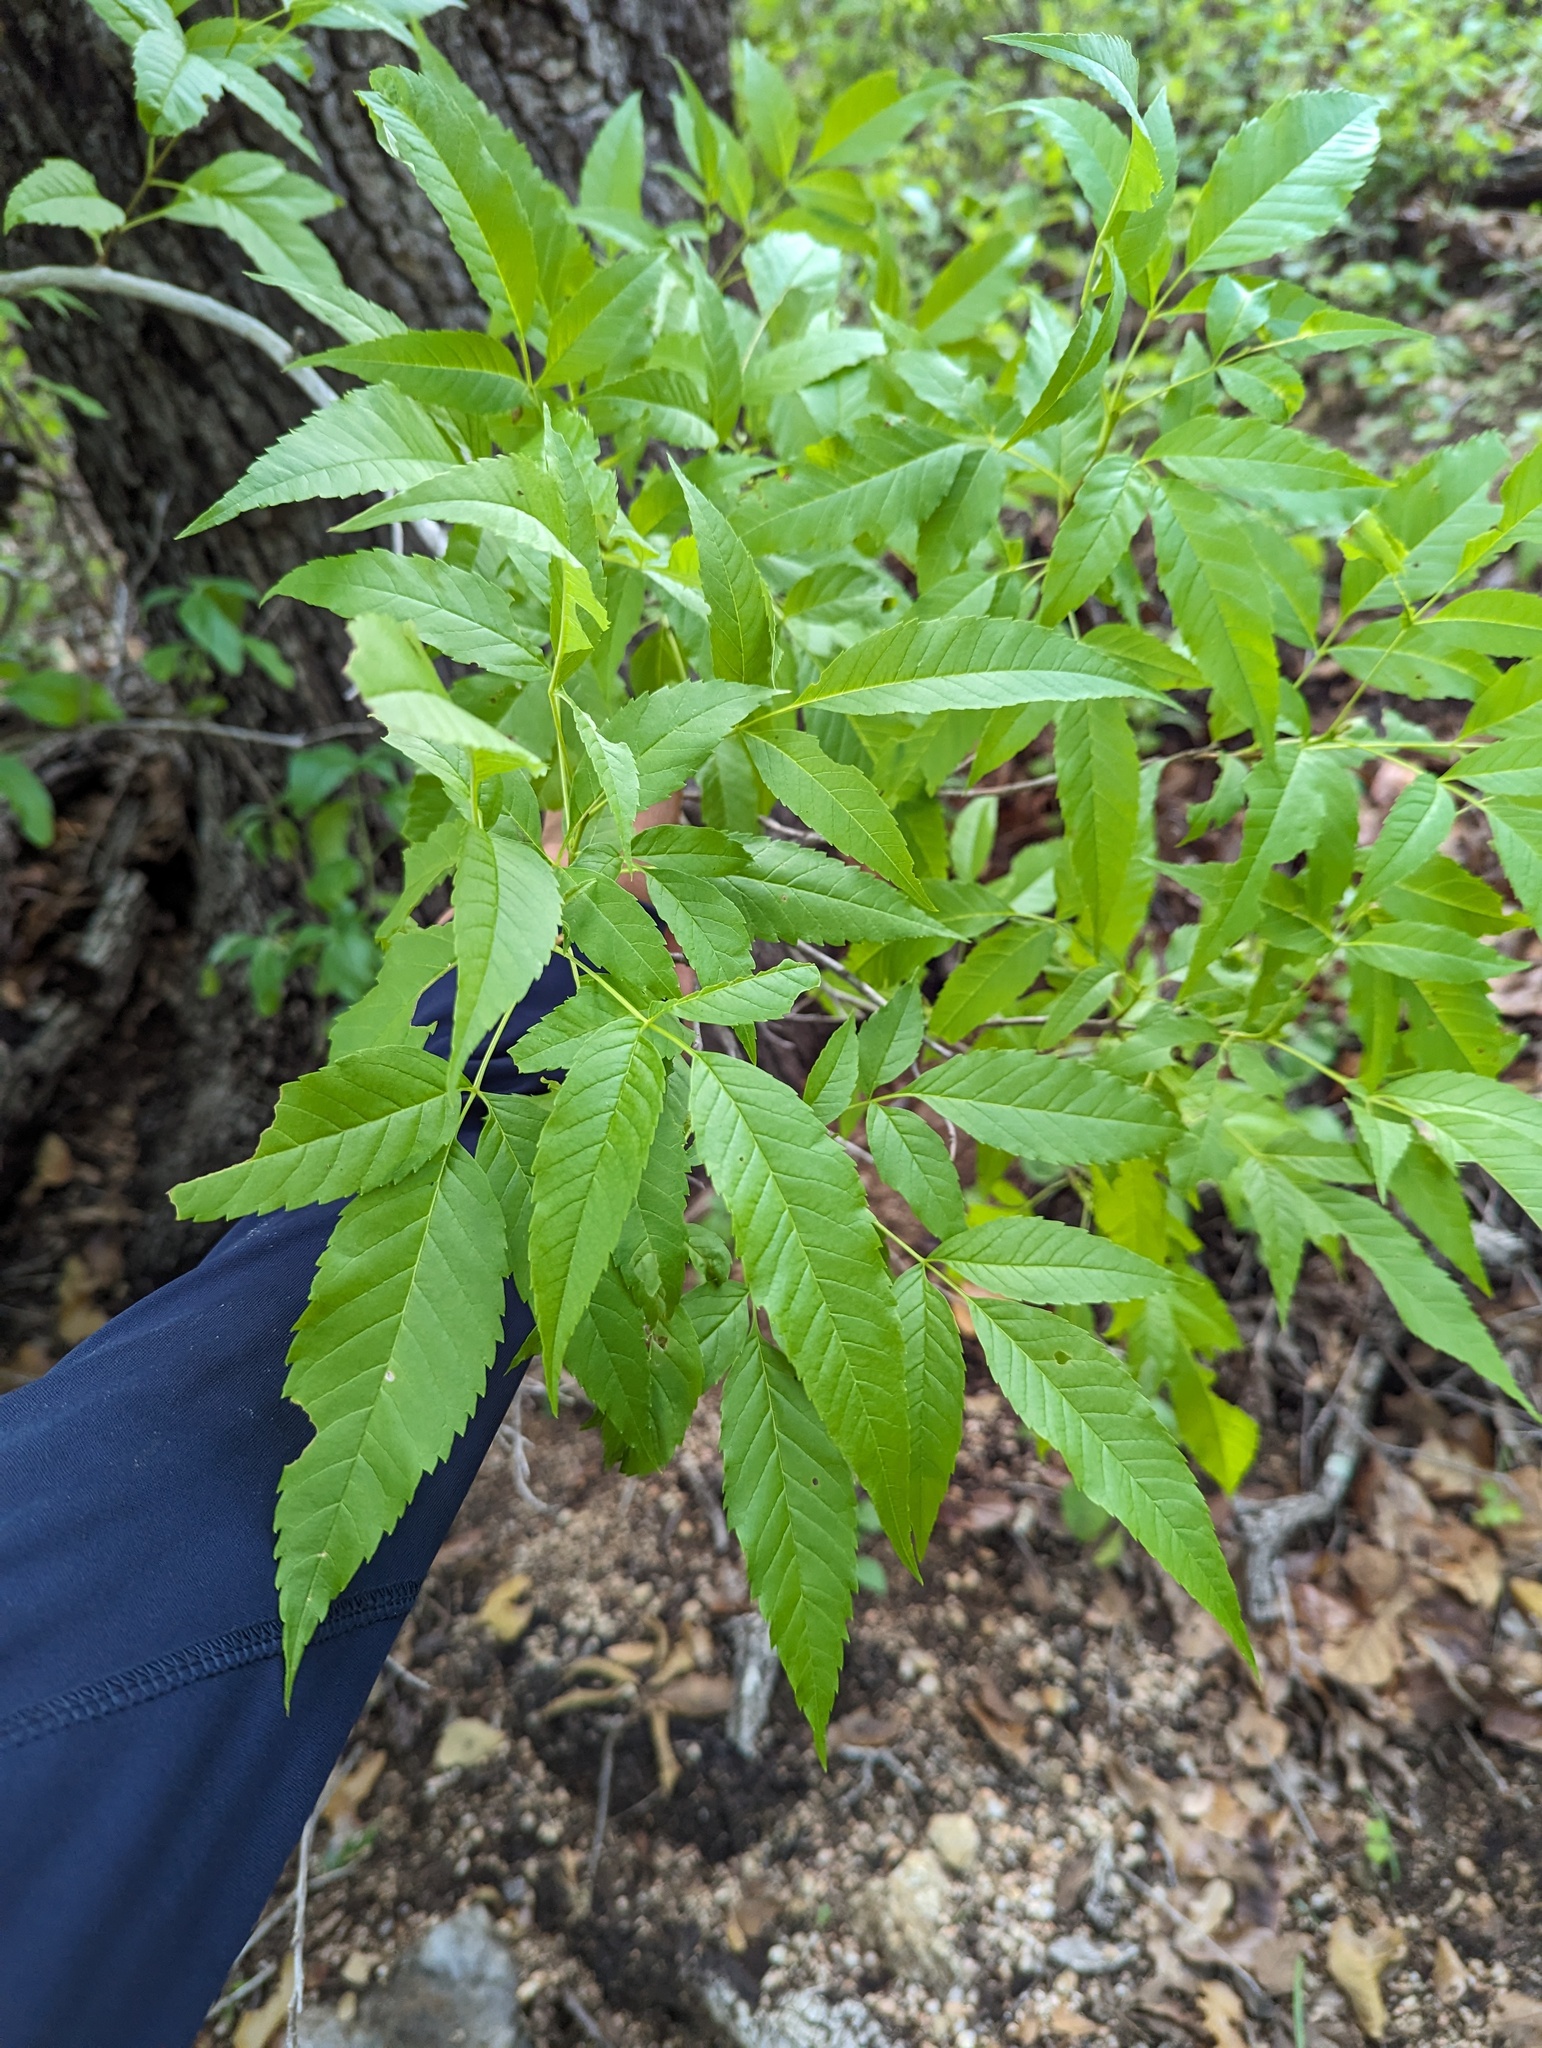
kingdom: Plantae
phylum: Tracheophyta
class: Magnoliopsida
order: Lamiales
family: Bignoniaceae
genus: Tecoma
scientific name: Tecoma stans
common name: Yellow trumpetbush
